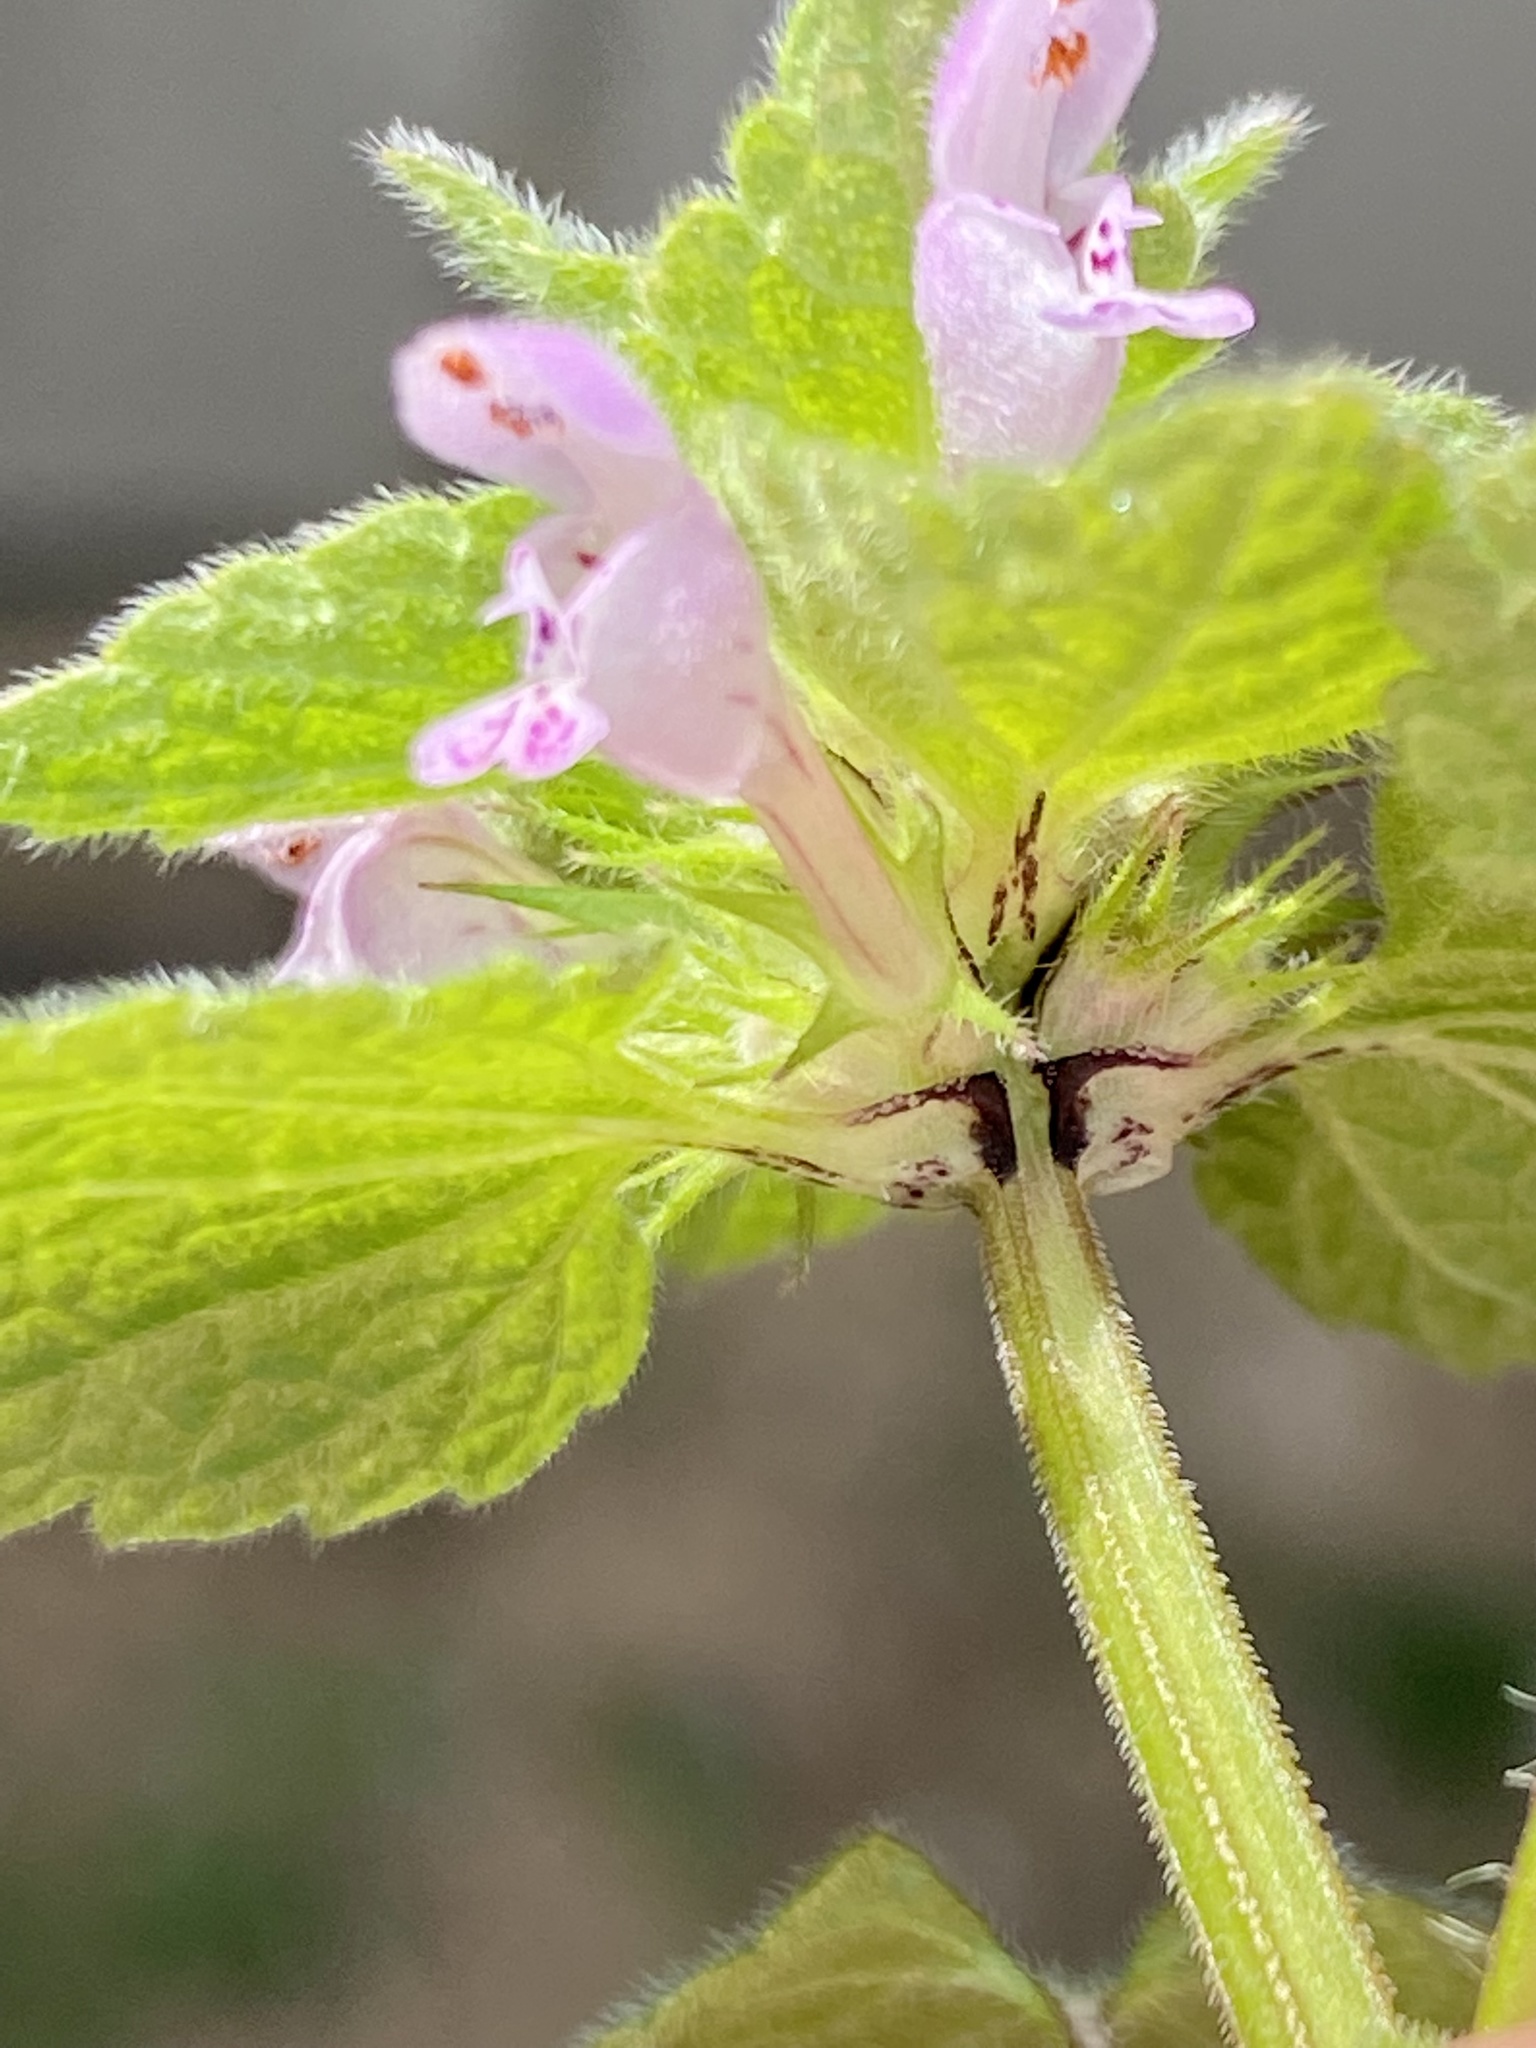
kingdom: Plantae
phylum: Tracheophyta
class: Magnoliopsida
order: Lamiales
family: Lamiaceae
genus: Lamium
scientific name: Lamium purpureum
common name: Red dead-nettle
